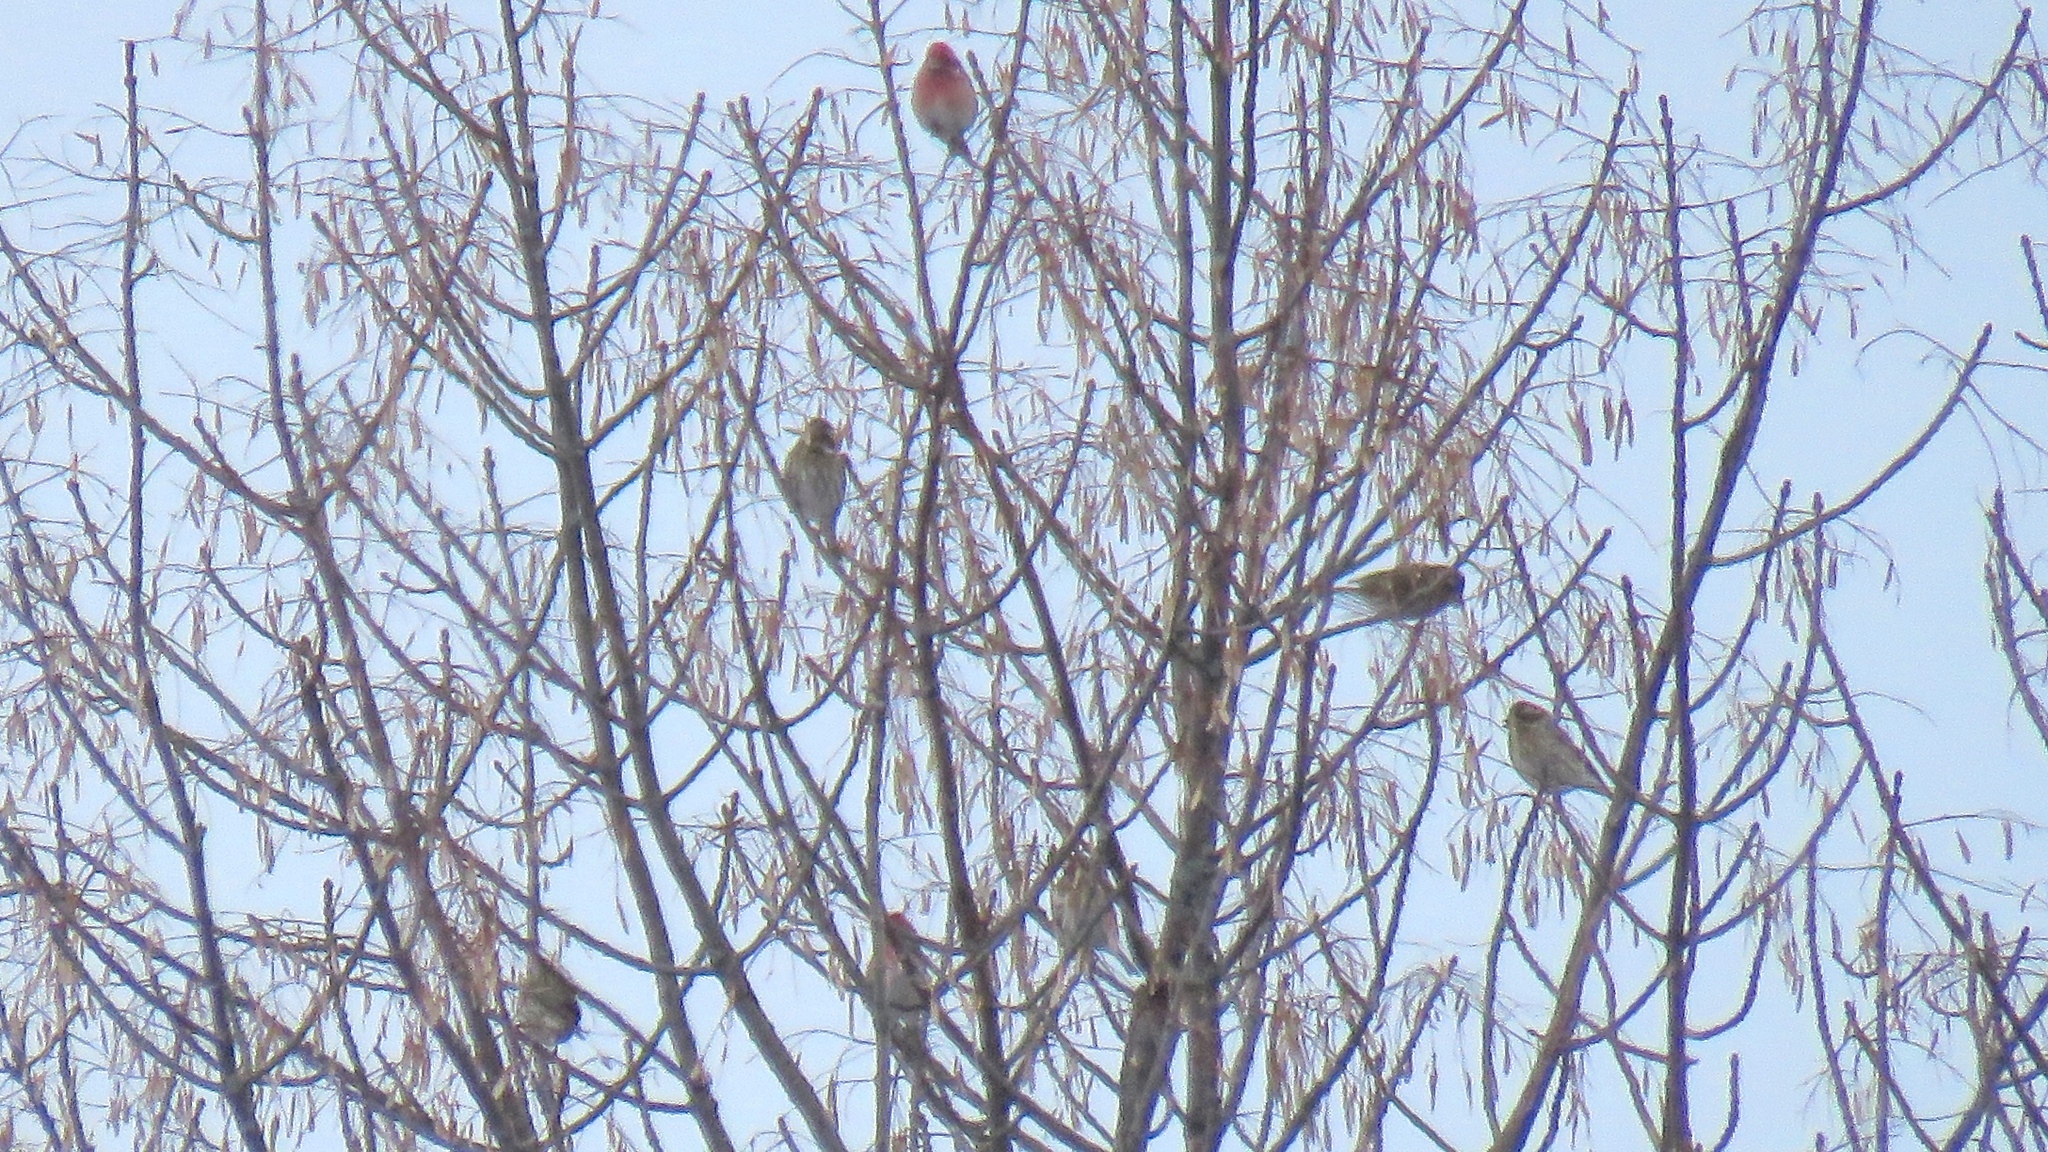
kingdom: Animalia
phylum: Chordata
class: Aves
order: Passeriformes
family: Fringillidae
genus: Haemorhous
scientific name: Haemorhous purpureus
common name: Purple finch
